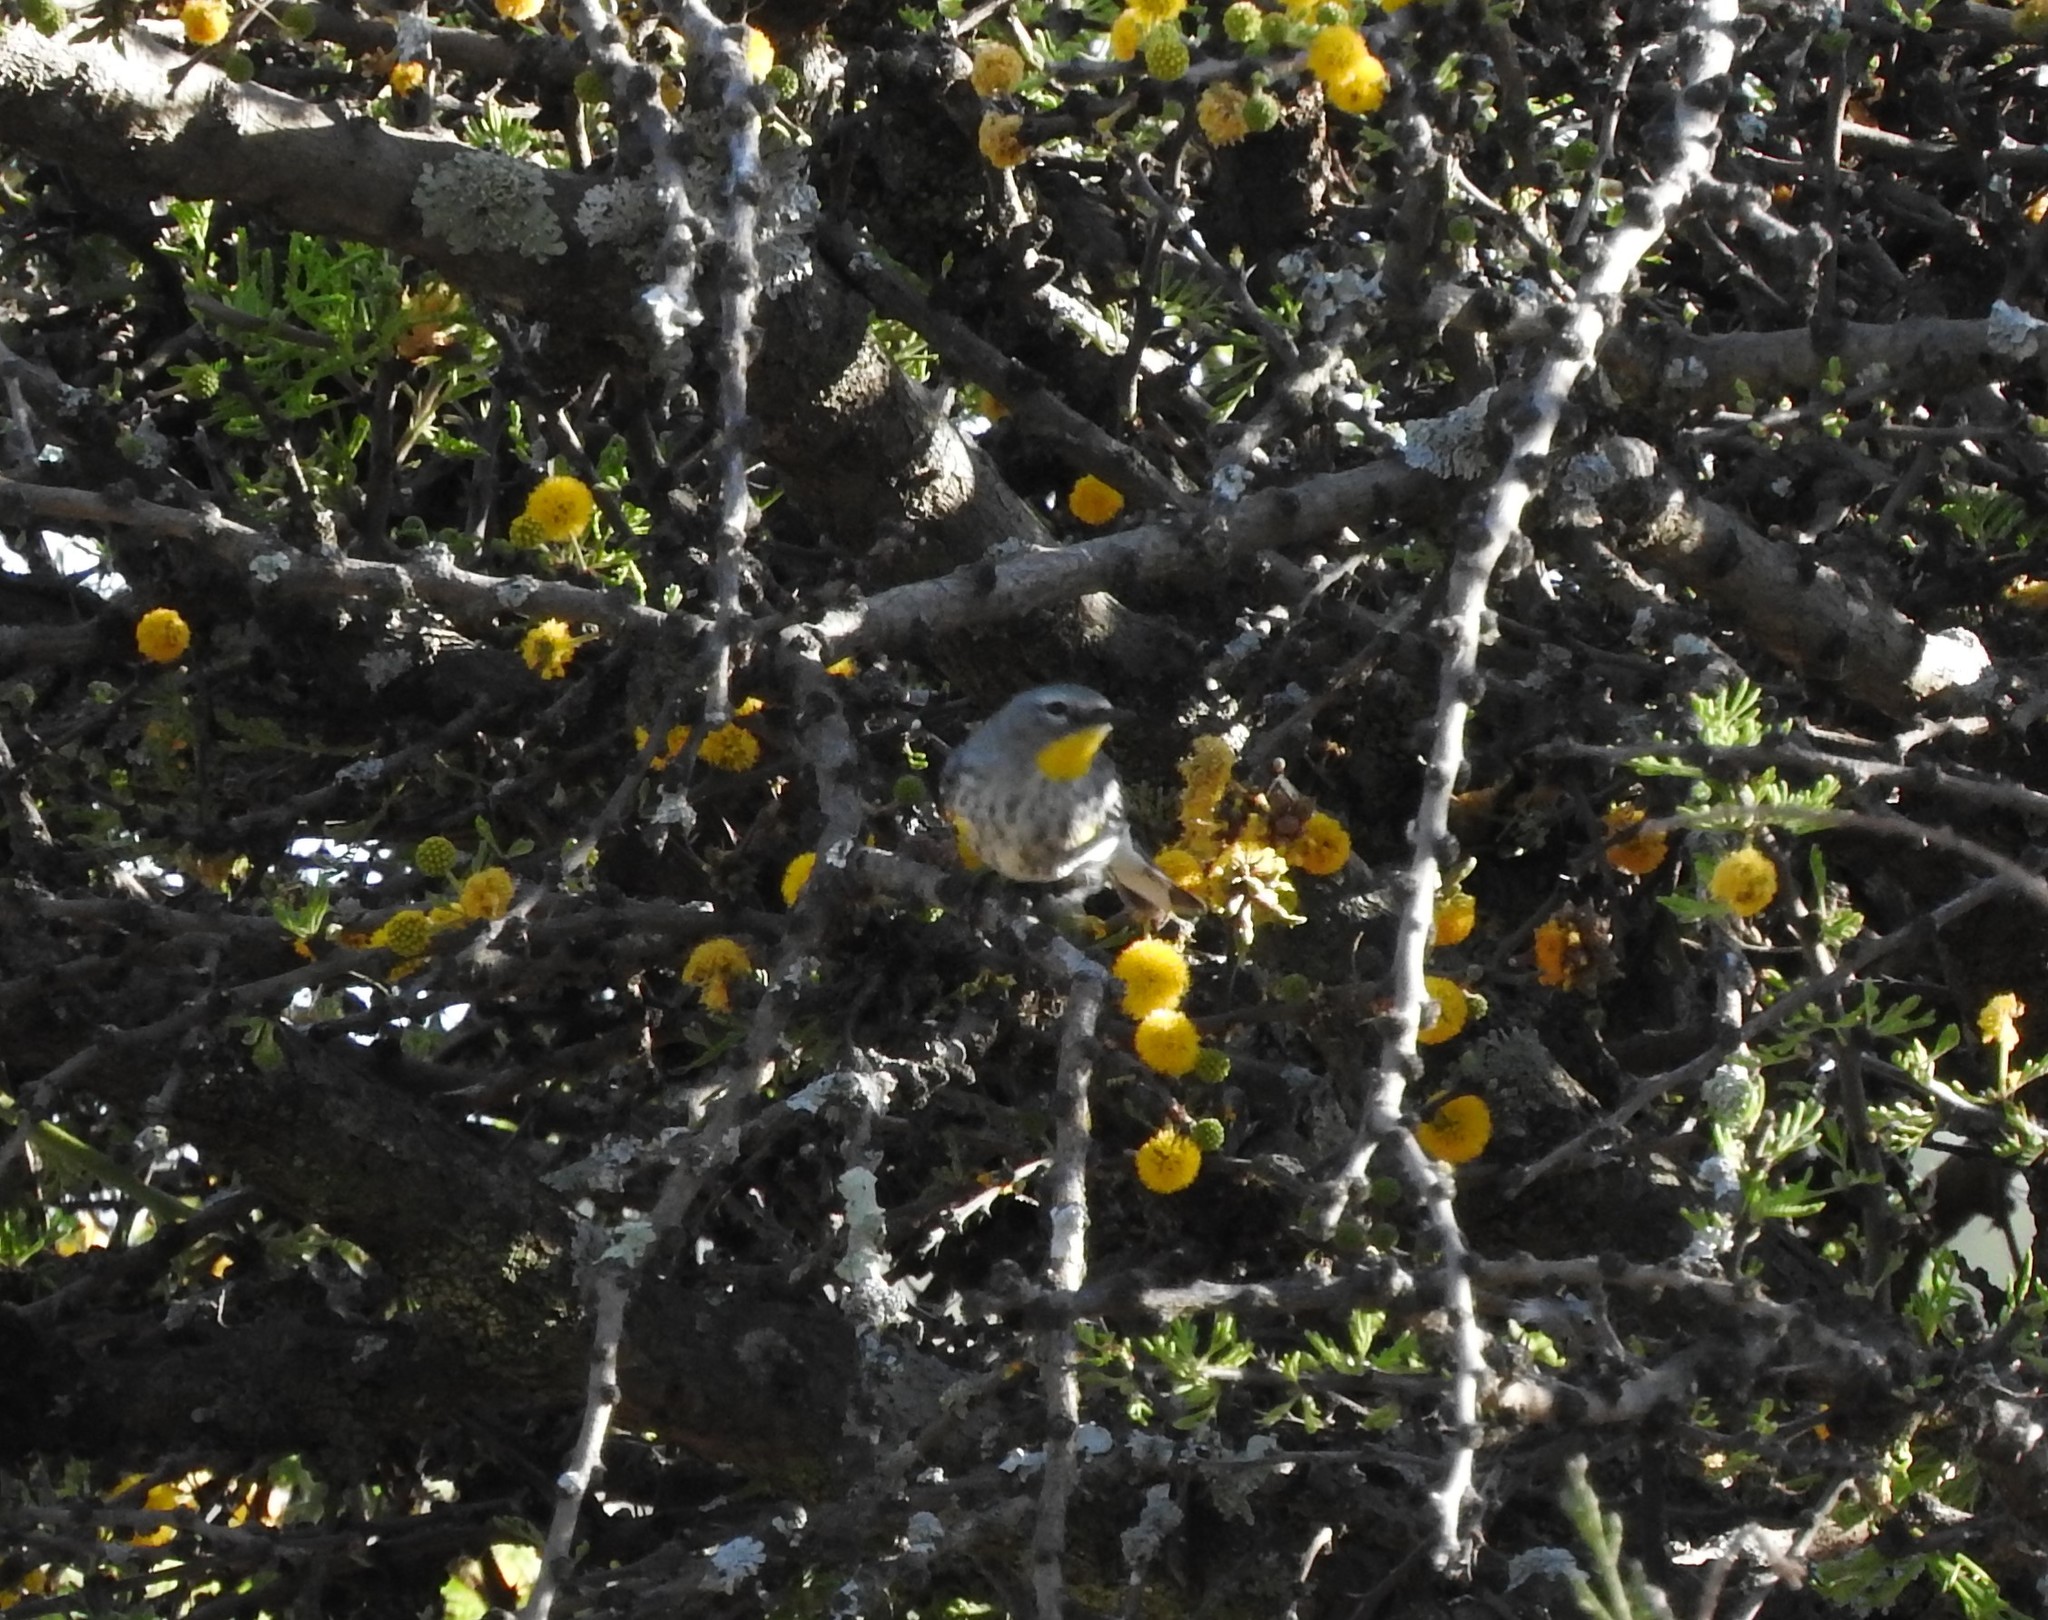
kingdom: Animalia
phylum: Chordata
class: Aves
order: Passeriformes
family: Parulidae
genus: Setophaga
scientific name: Setophaga auduboni
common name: Audubon's warbler
